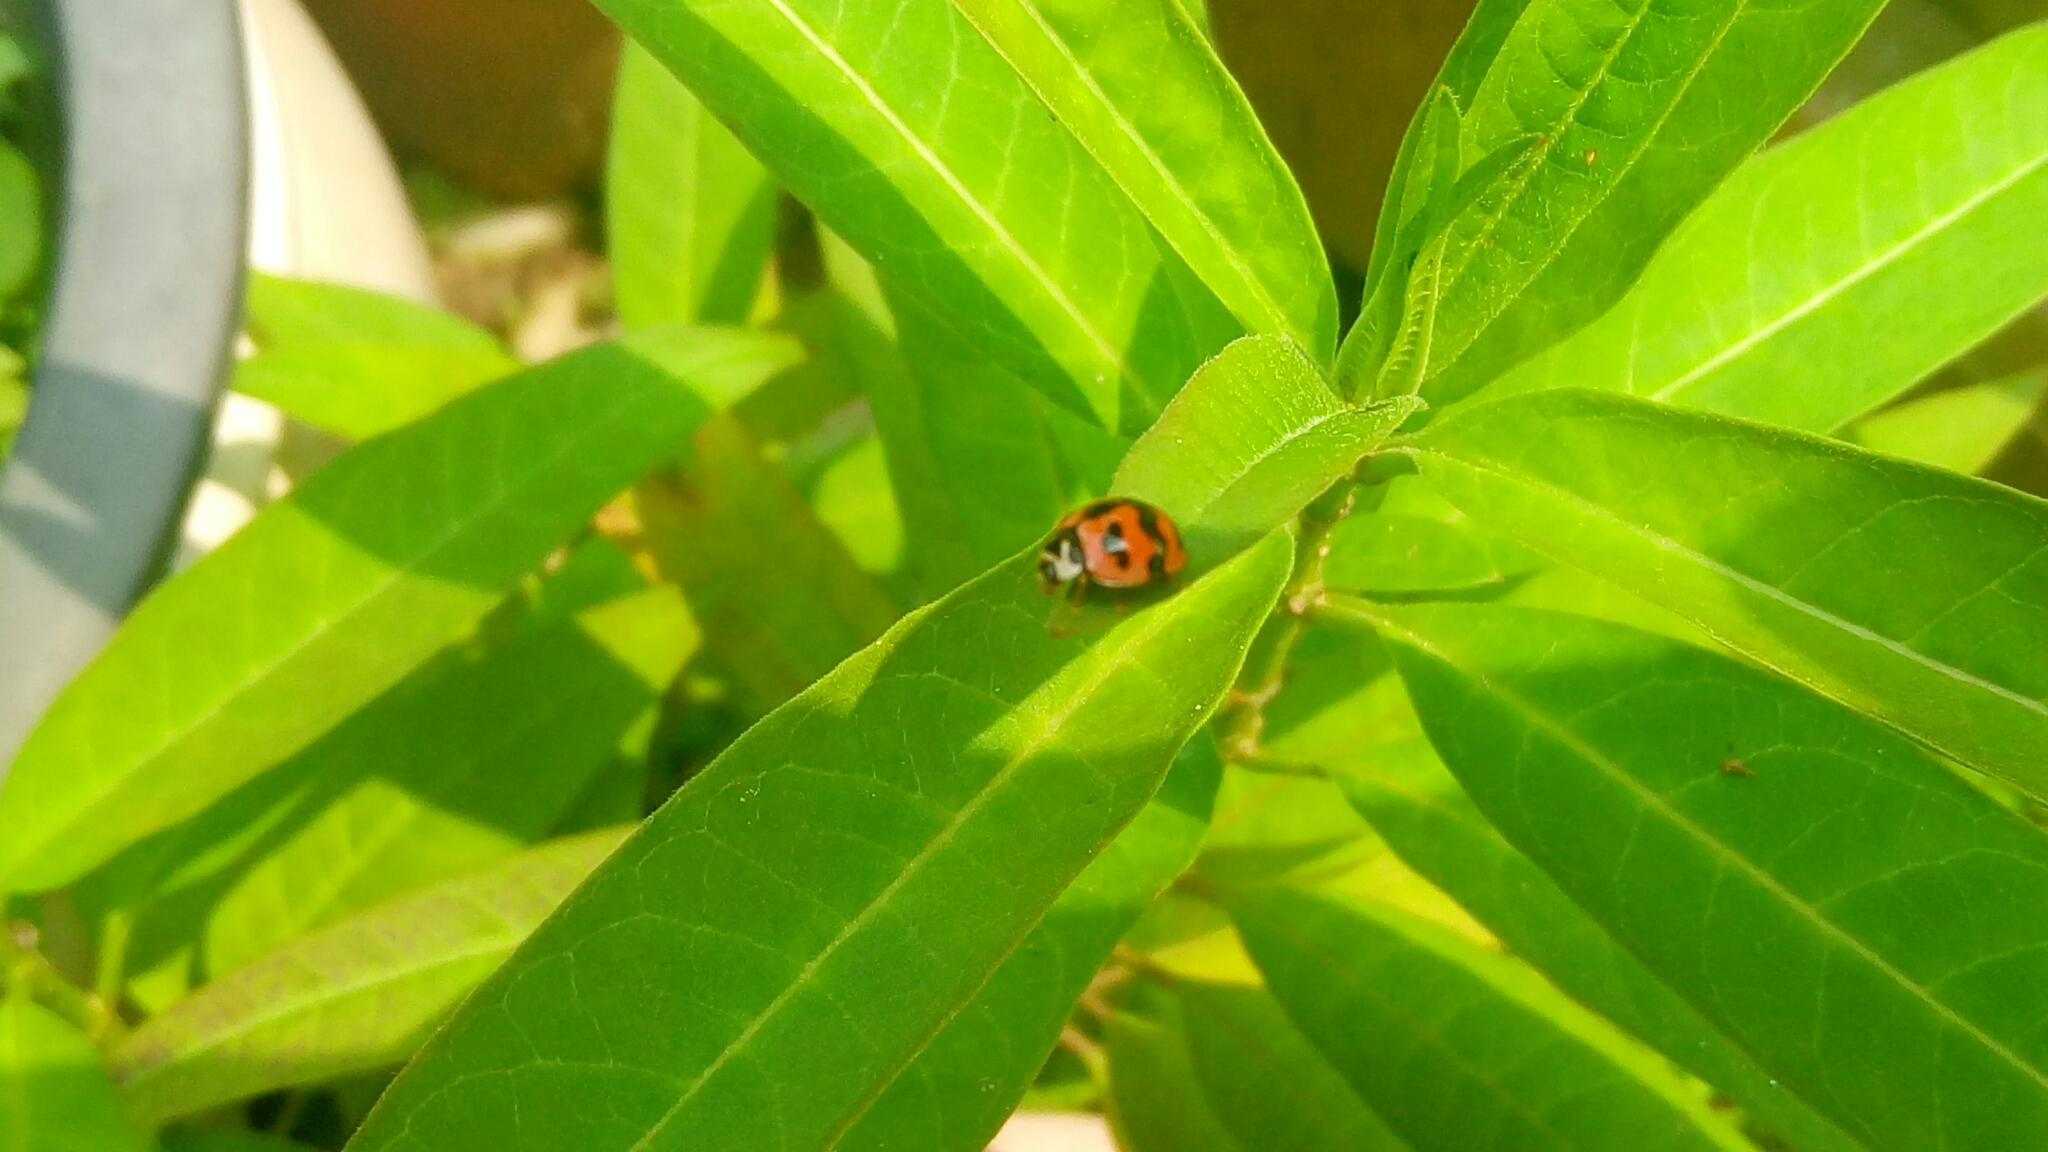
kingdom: Animalia
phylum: Arthropoda
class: Insecta
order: Coleoptera
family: Coccinellidae
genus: Cheilomenes
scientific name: Cheilomenes sexmaculata
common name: Ladybird beetle
